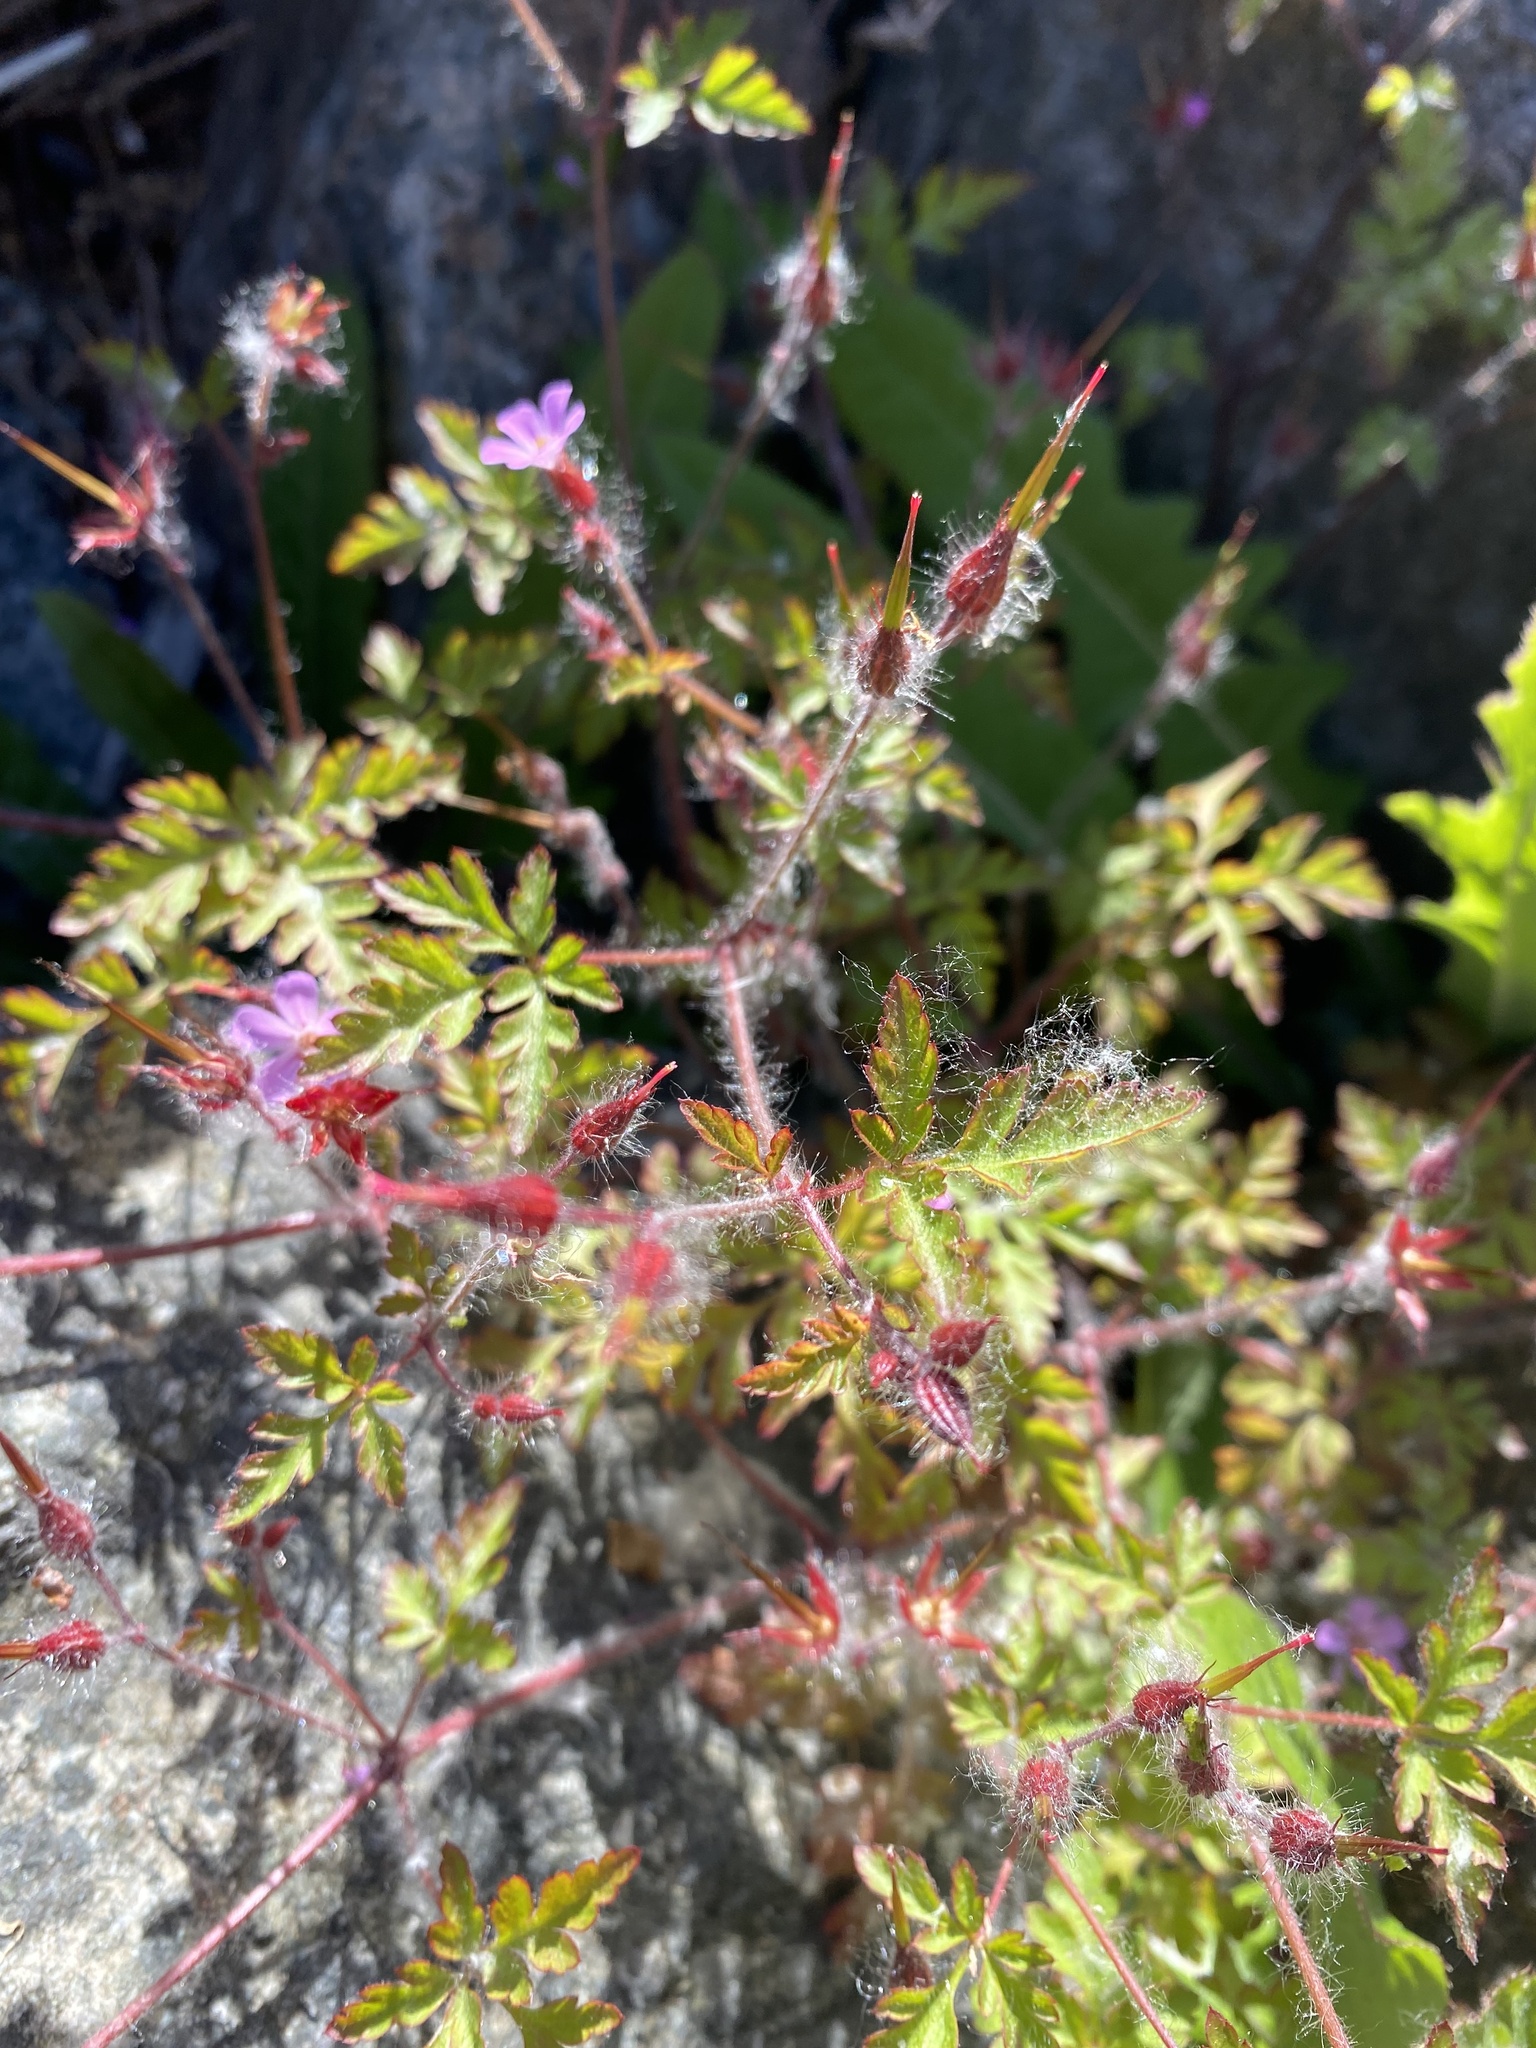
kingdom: Plantae
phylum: Tracheophyta
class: Magnoliopsida
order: Geraniales
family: Geraniaceae
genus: Geranium
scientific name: Geranium robertianum
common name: Herb-robert
